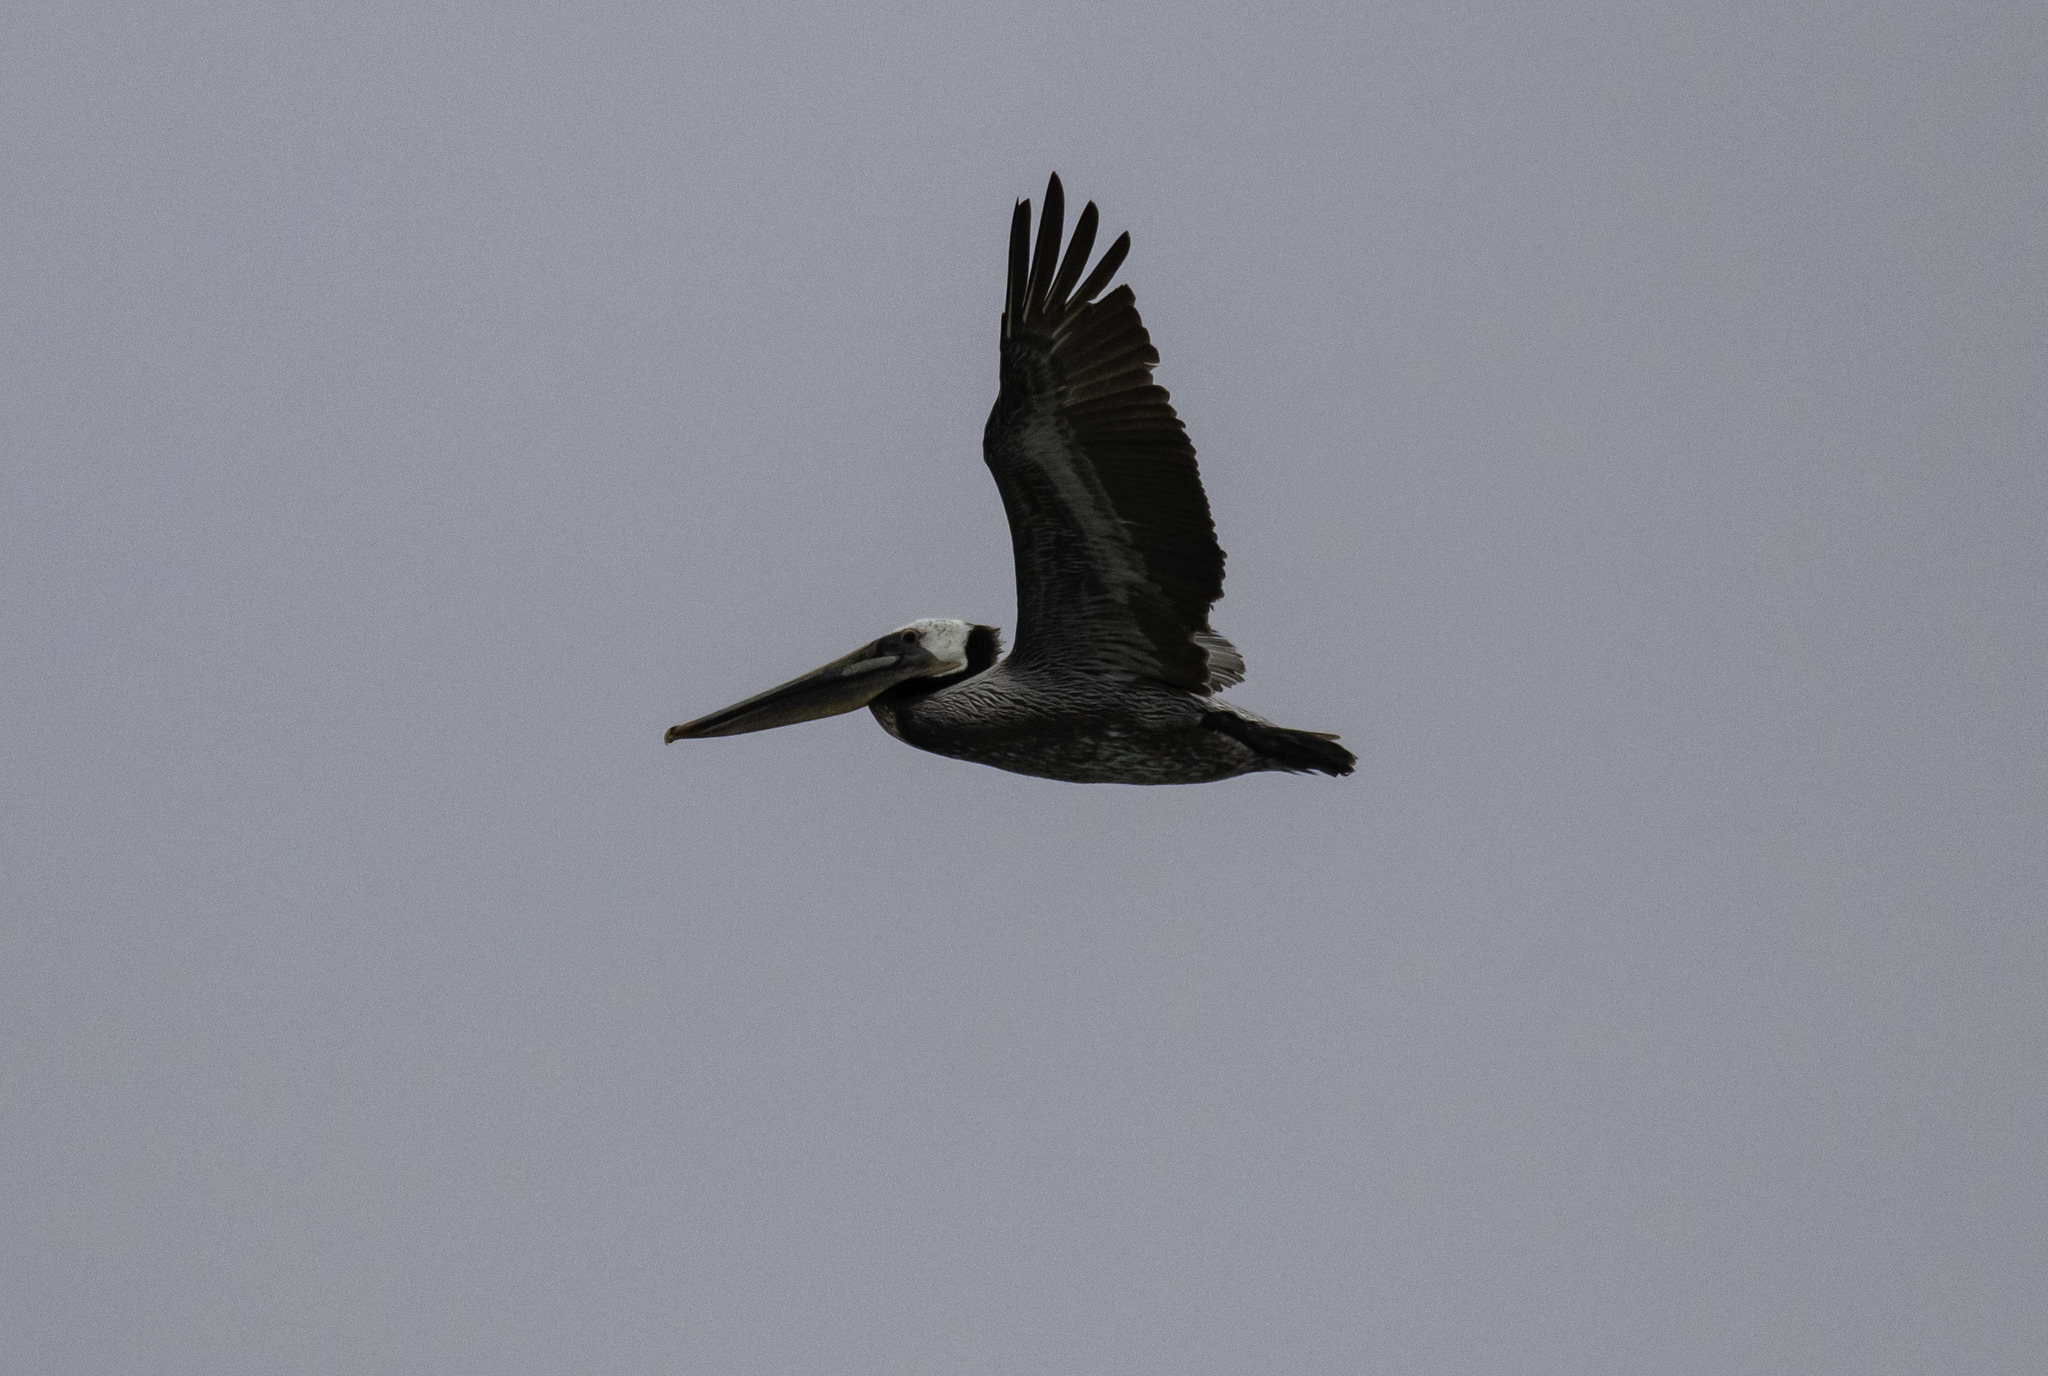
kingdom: Animalia
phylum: Chordata
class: Aves
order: Pelecaniformes
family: Pelecanidae
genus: Pelecanus
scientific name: Pelecanus occidentalis
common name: Brown pelican
